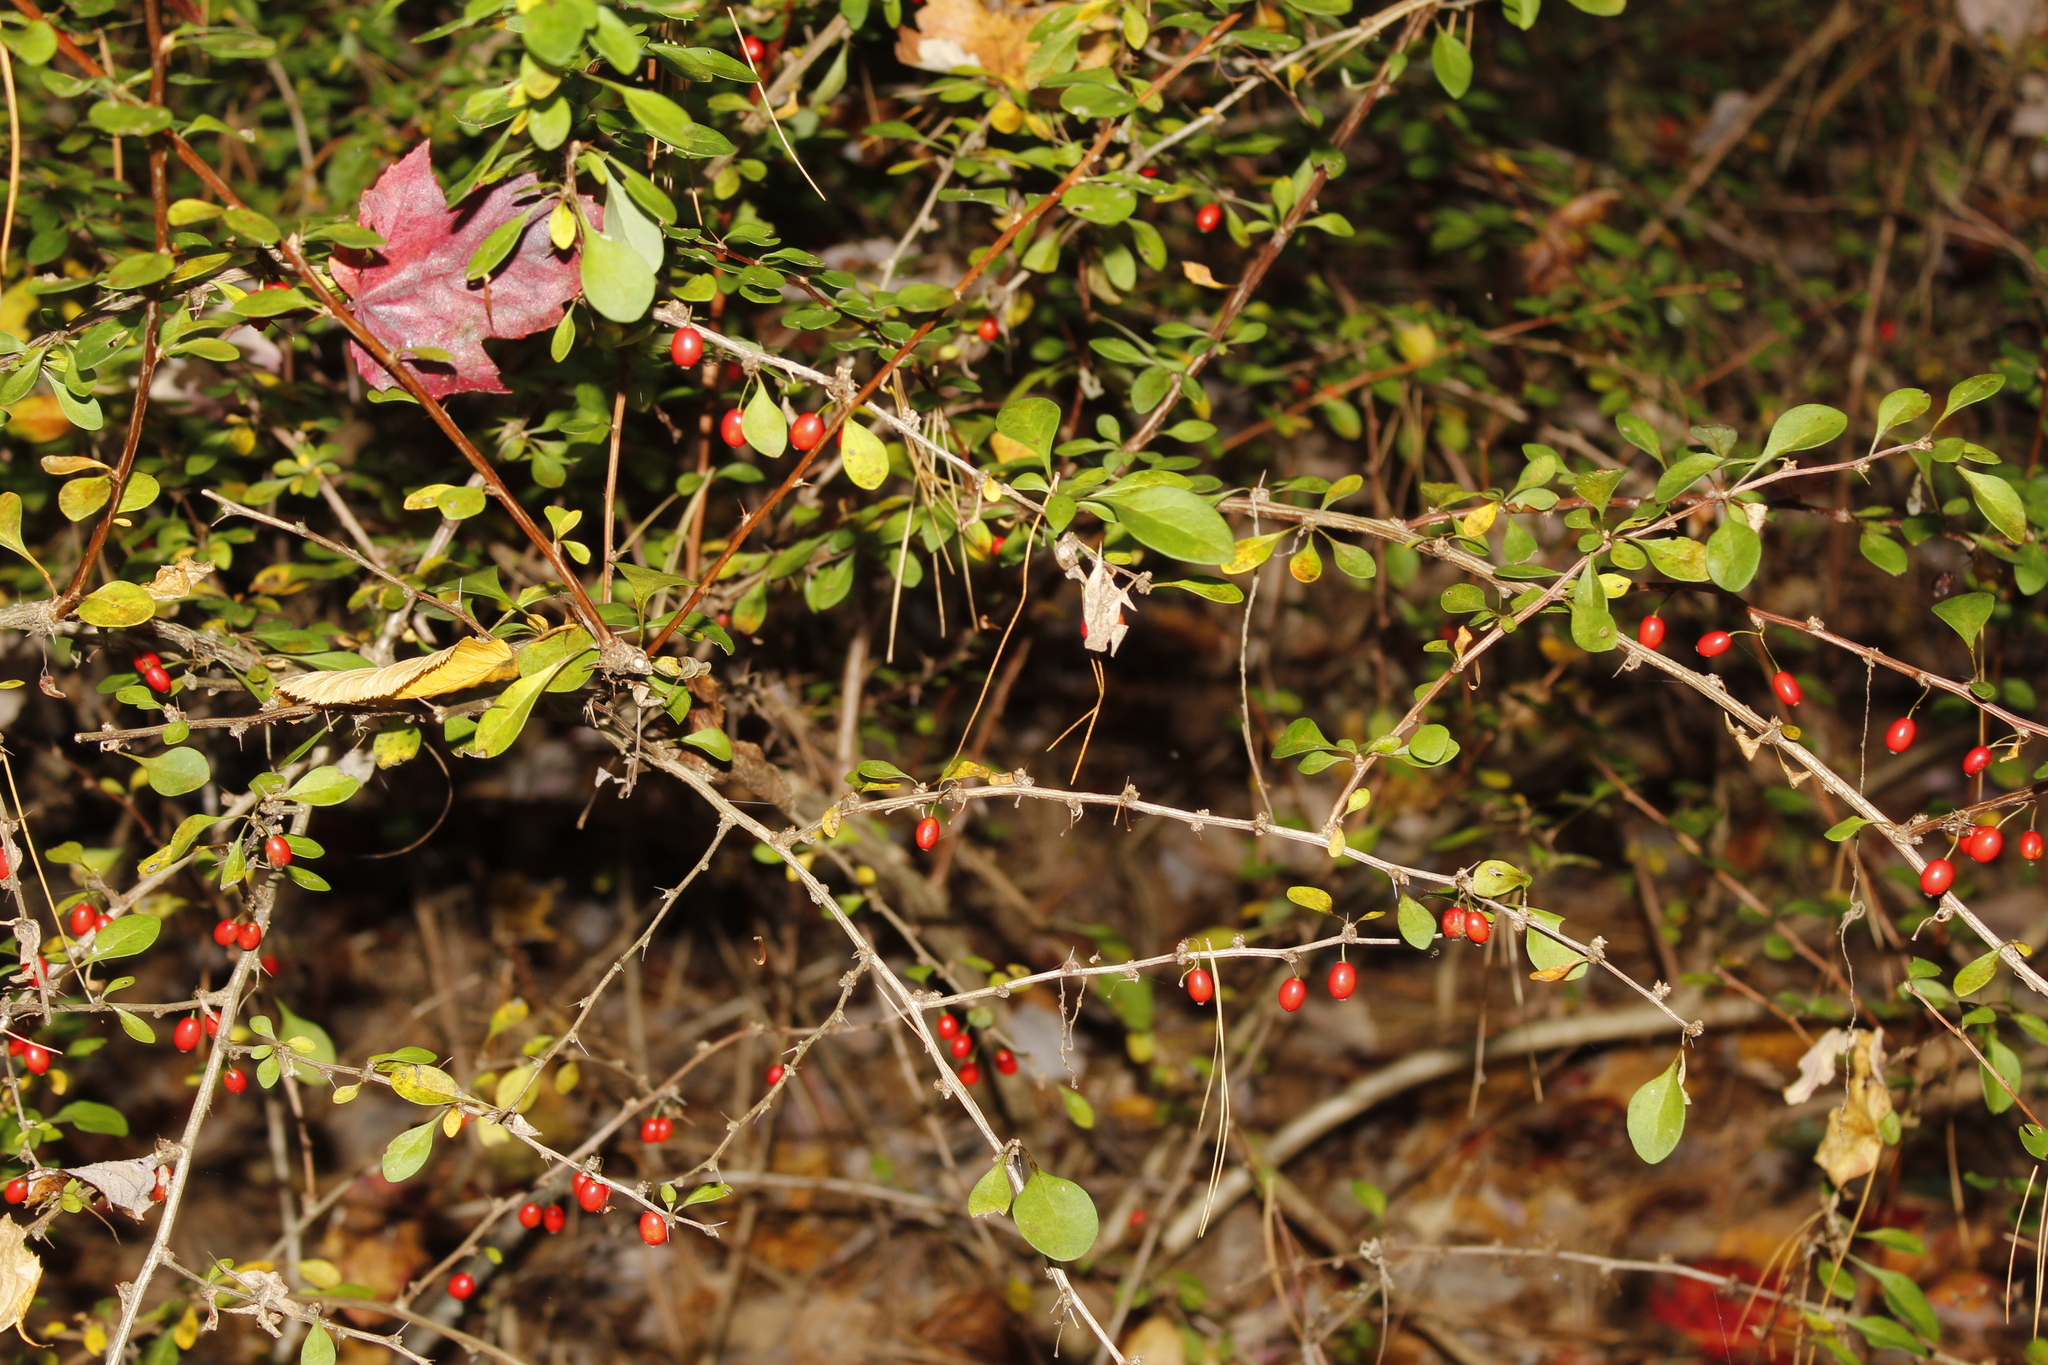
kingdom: Plantae
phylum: Tracheophyta
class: Magnoliopsida
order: Ranunculales
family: Berberidaceae
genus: Berberis
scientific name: Berberis thunbergii
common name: Japanese barberry
